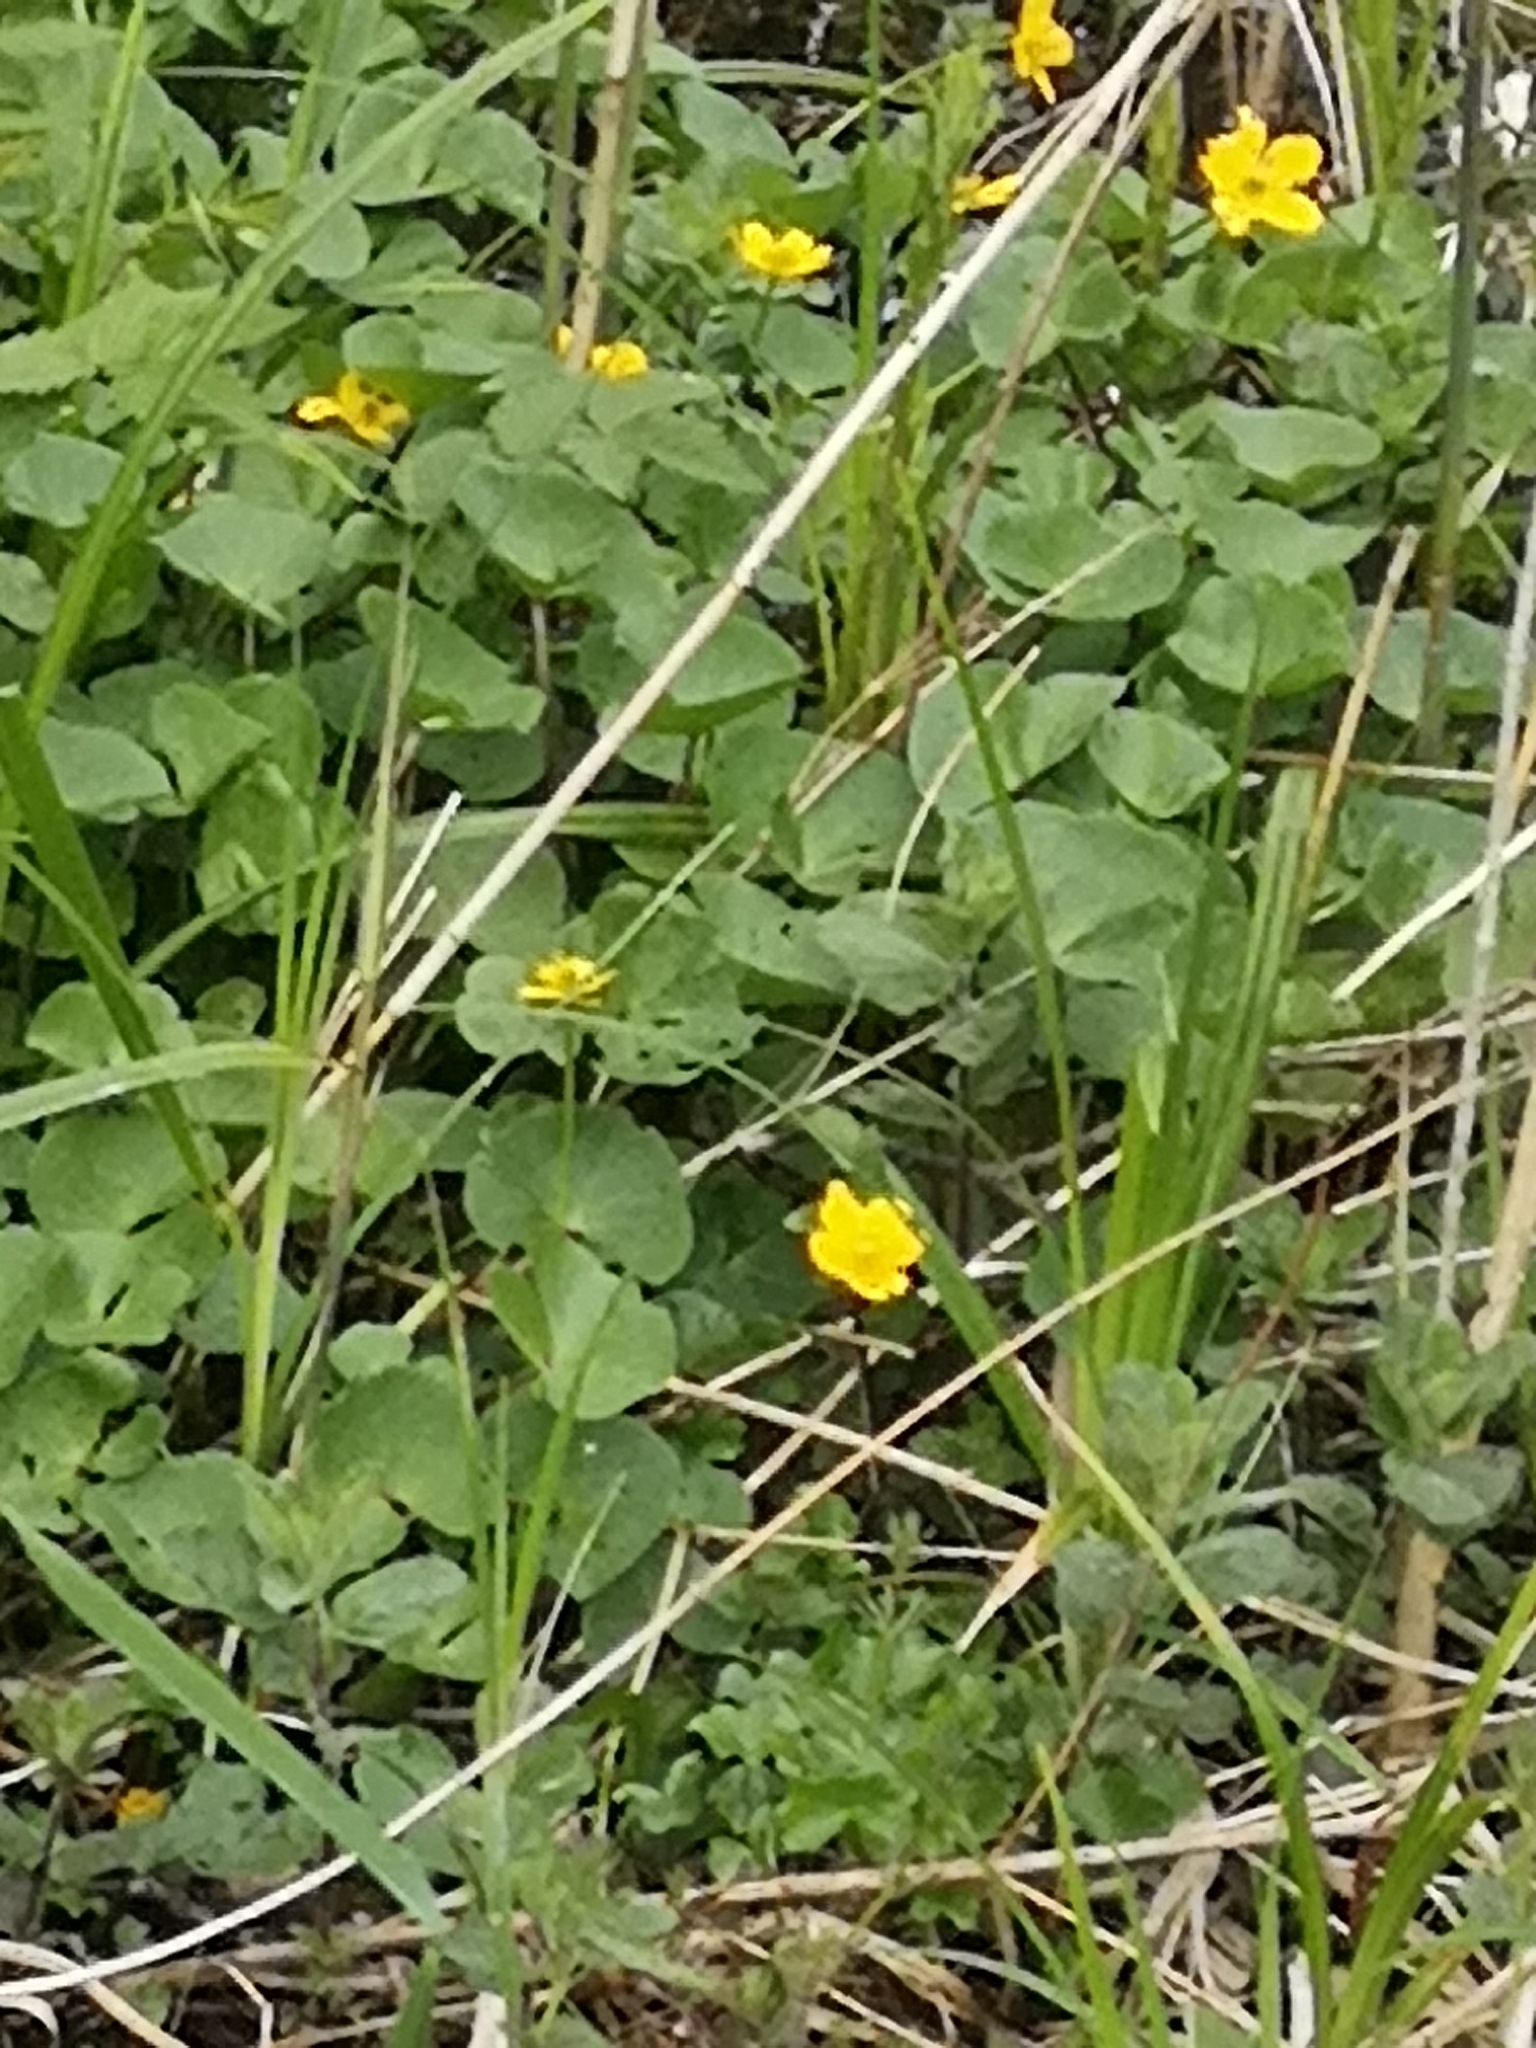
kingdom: Plantae
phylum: Tracheophyta
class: Magnoliopsida
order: Ranunculales
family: Ranunculaceae
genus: Caltha
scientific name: Caltha palustris
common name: Marsh marigold
